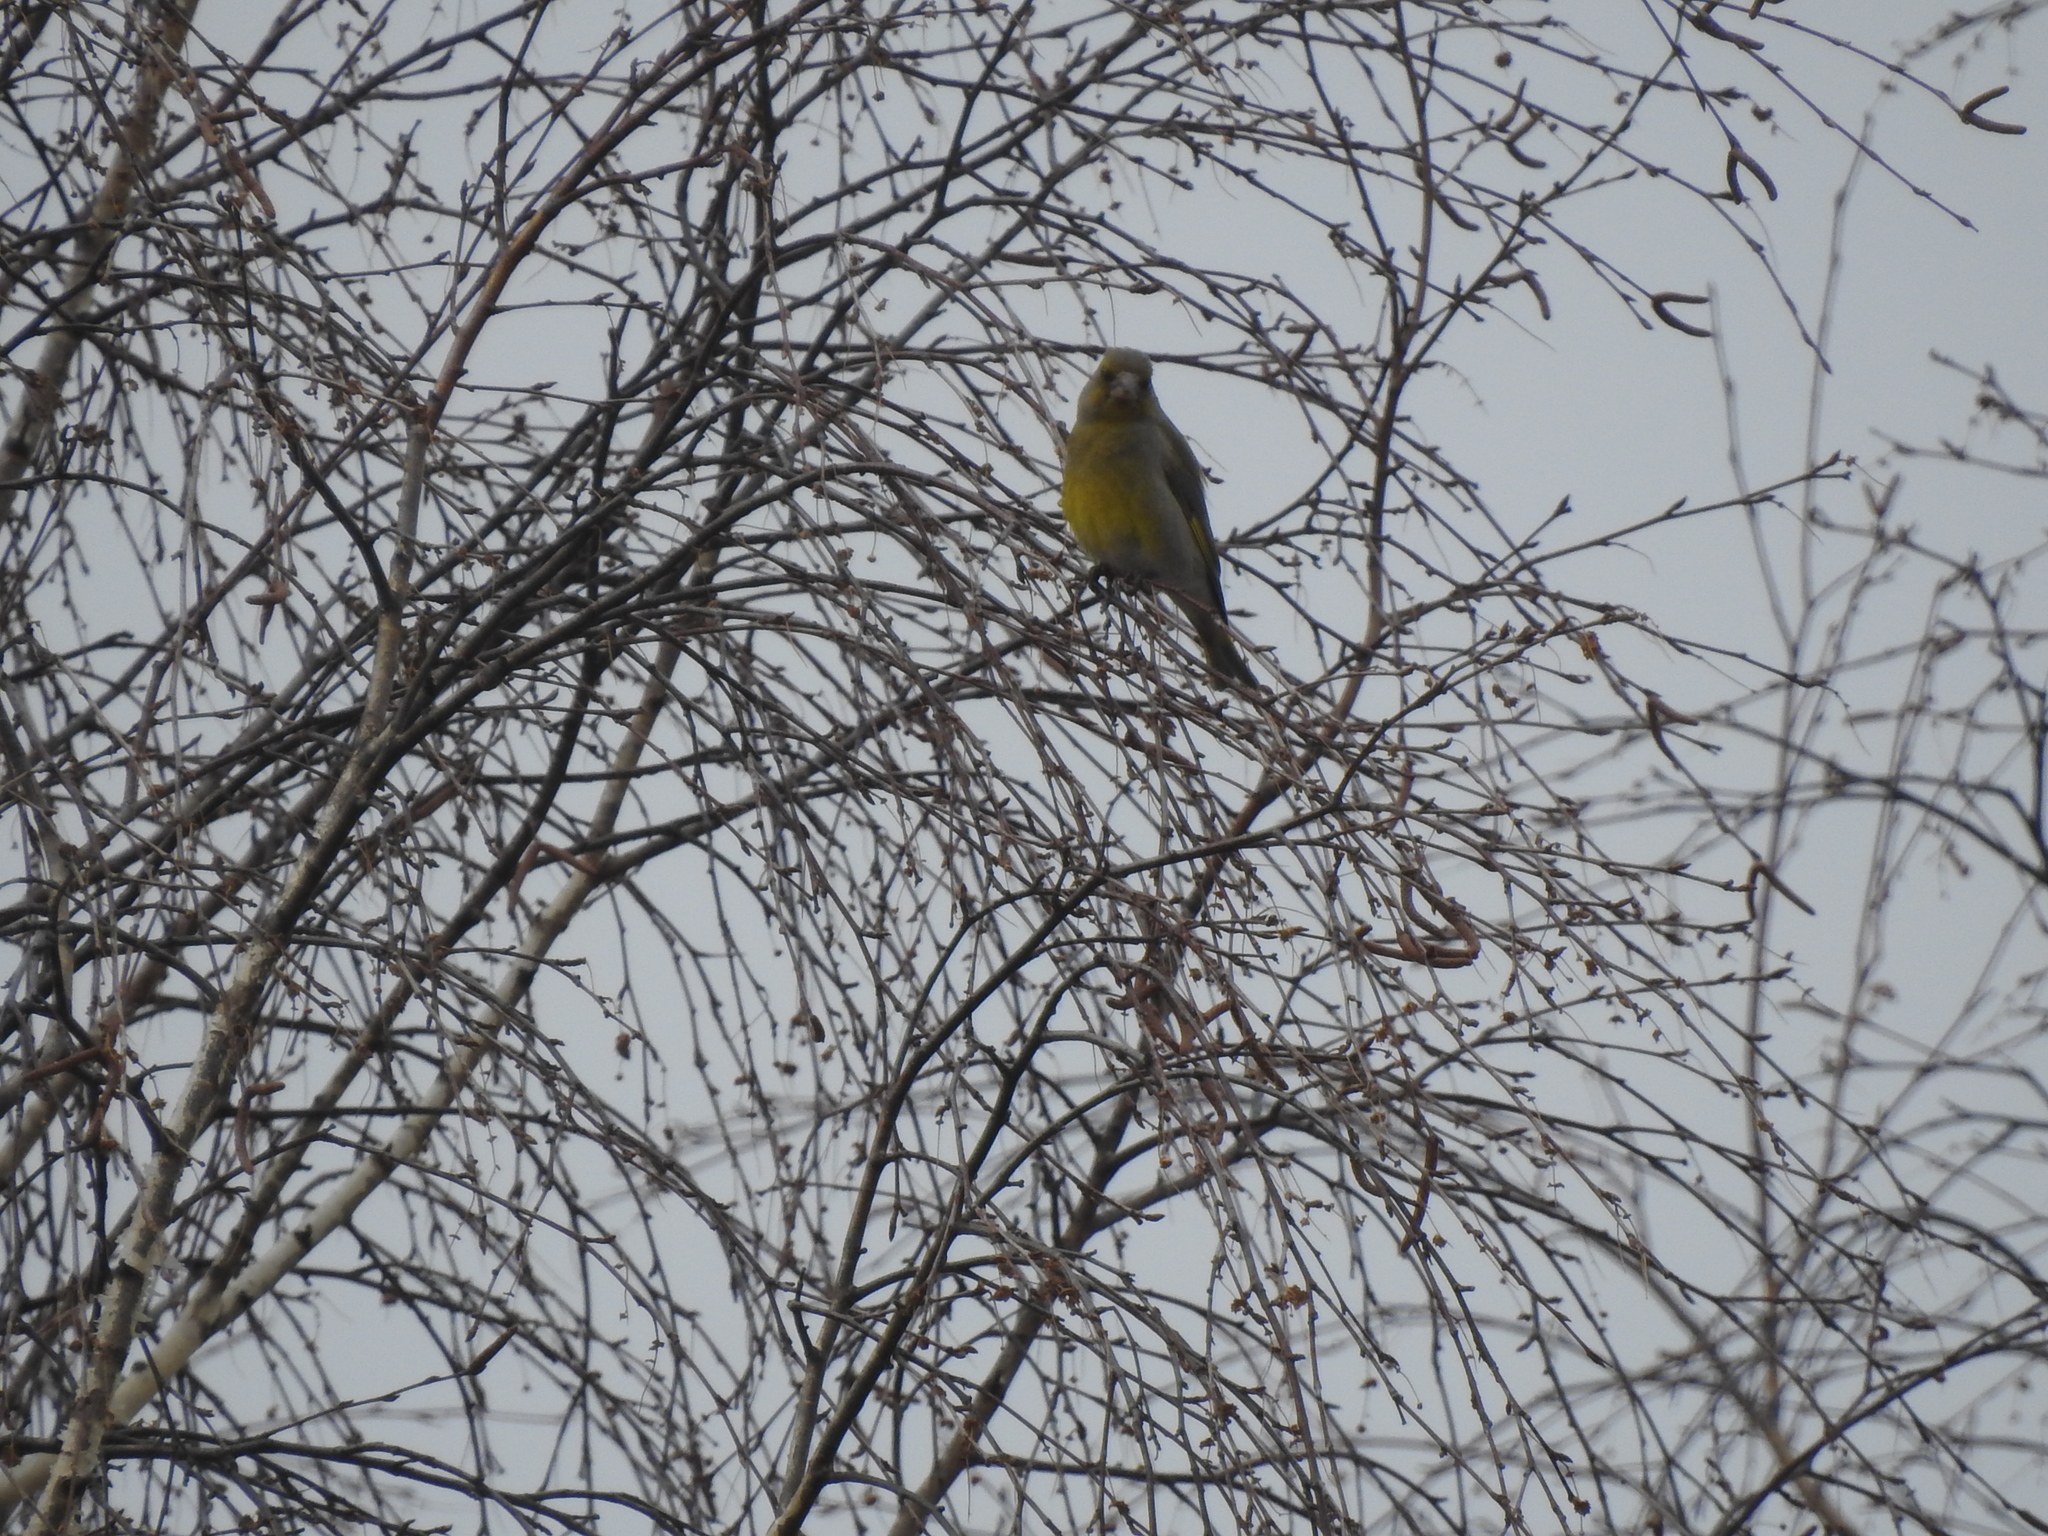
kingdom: Plantae
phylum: Tracheophyta
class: Liliopsida
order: Poales
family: Poaceae
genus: Chloris
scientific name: Chloris chloris
